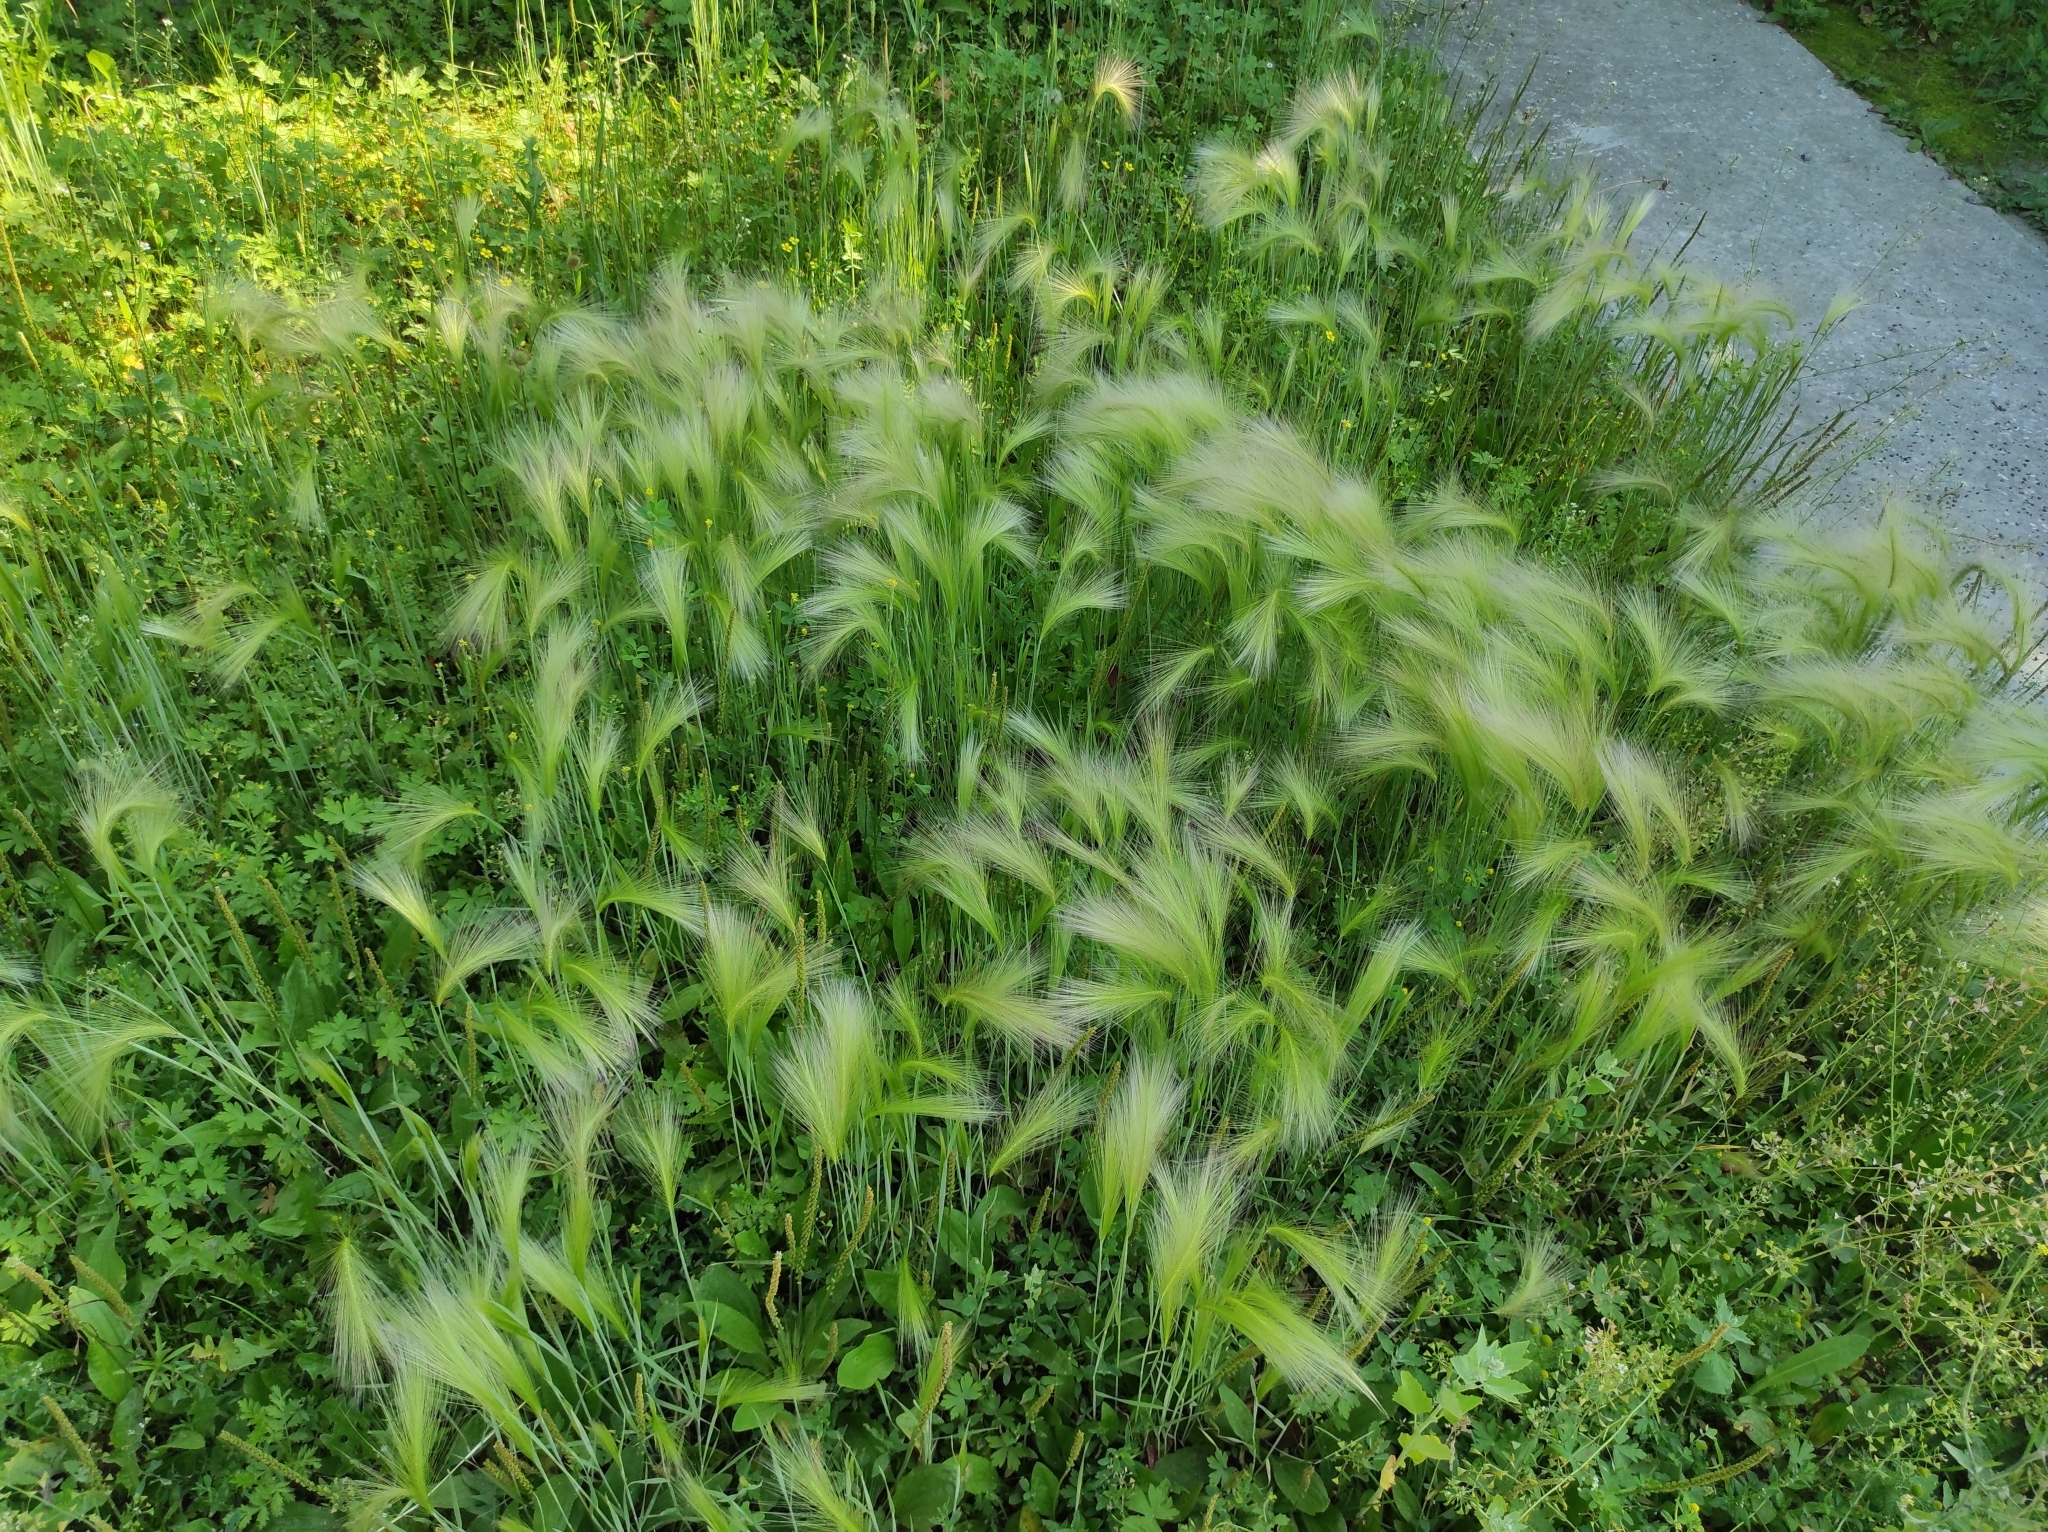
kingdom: Plantae
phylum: Tracheophyta
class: Liliopsida
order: Poales
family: Poaceae
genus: Hordeum
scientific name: Hordeum jubatum
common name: Foxtail barley
